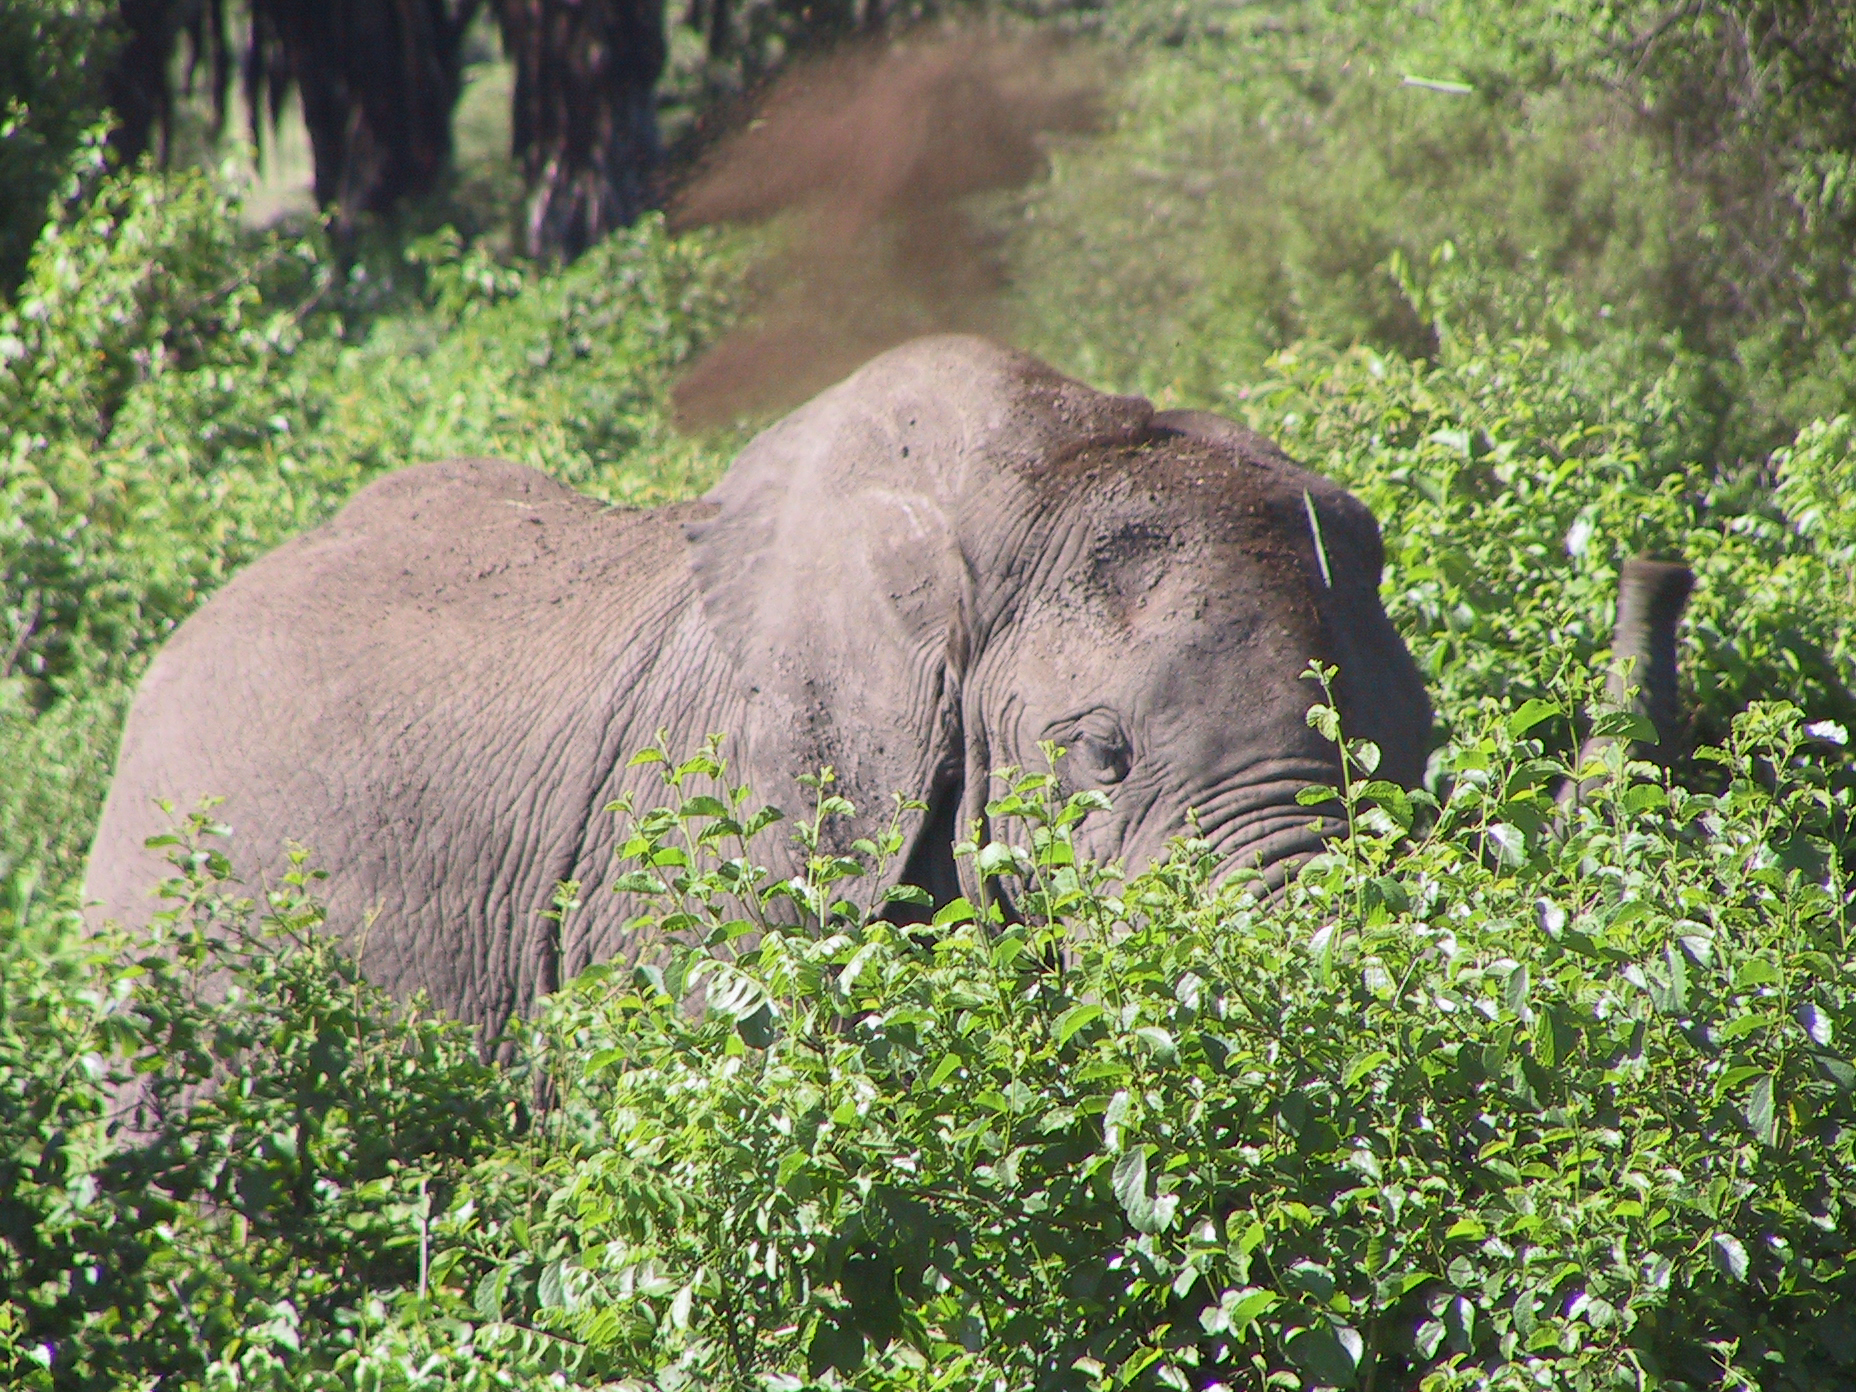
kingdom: Animalia
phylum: Chordata
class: Mammalia
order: Proboscidea
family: Elephantidae
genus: Loxodonta
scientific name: Loxodonta africana
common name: African elephant
